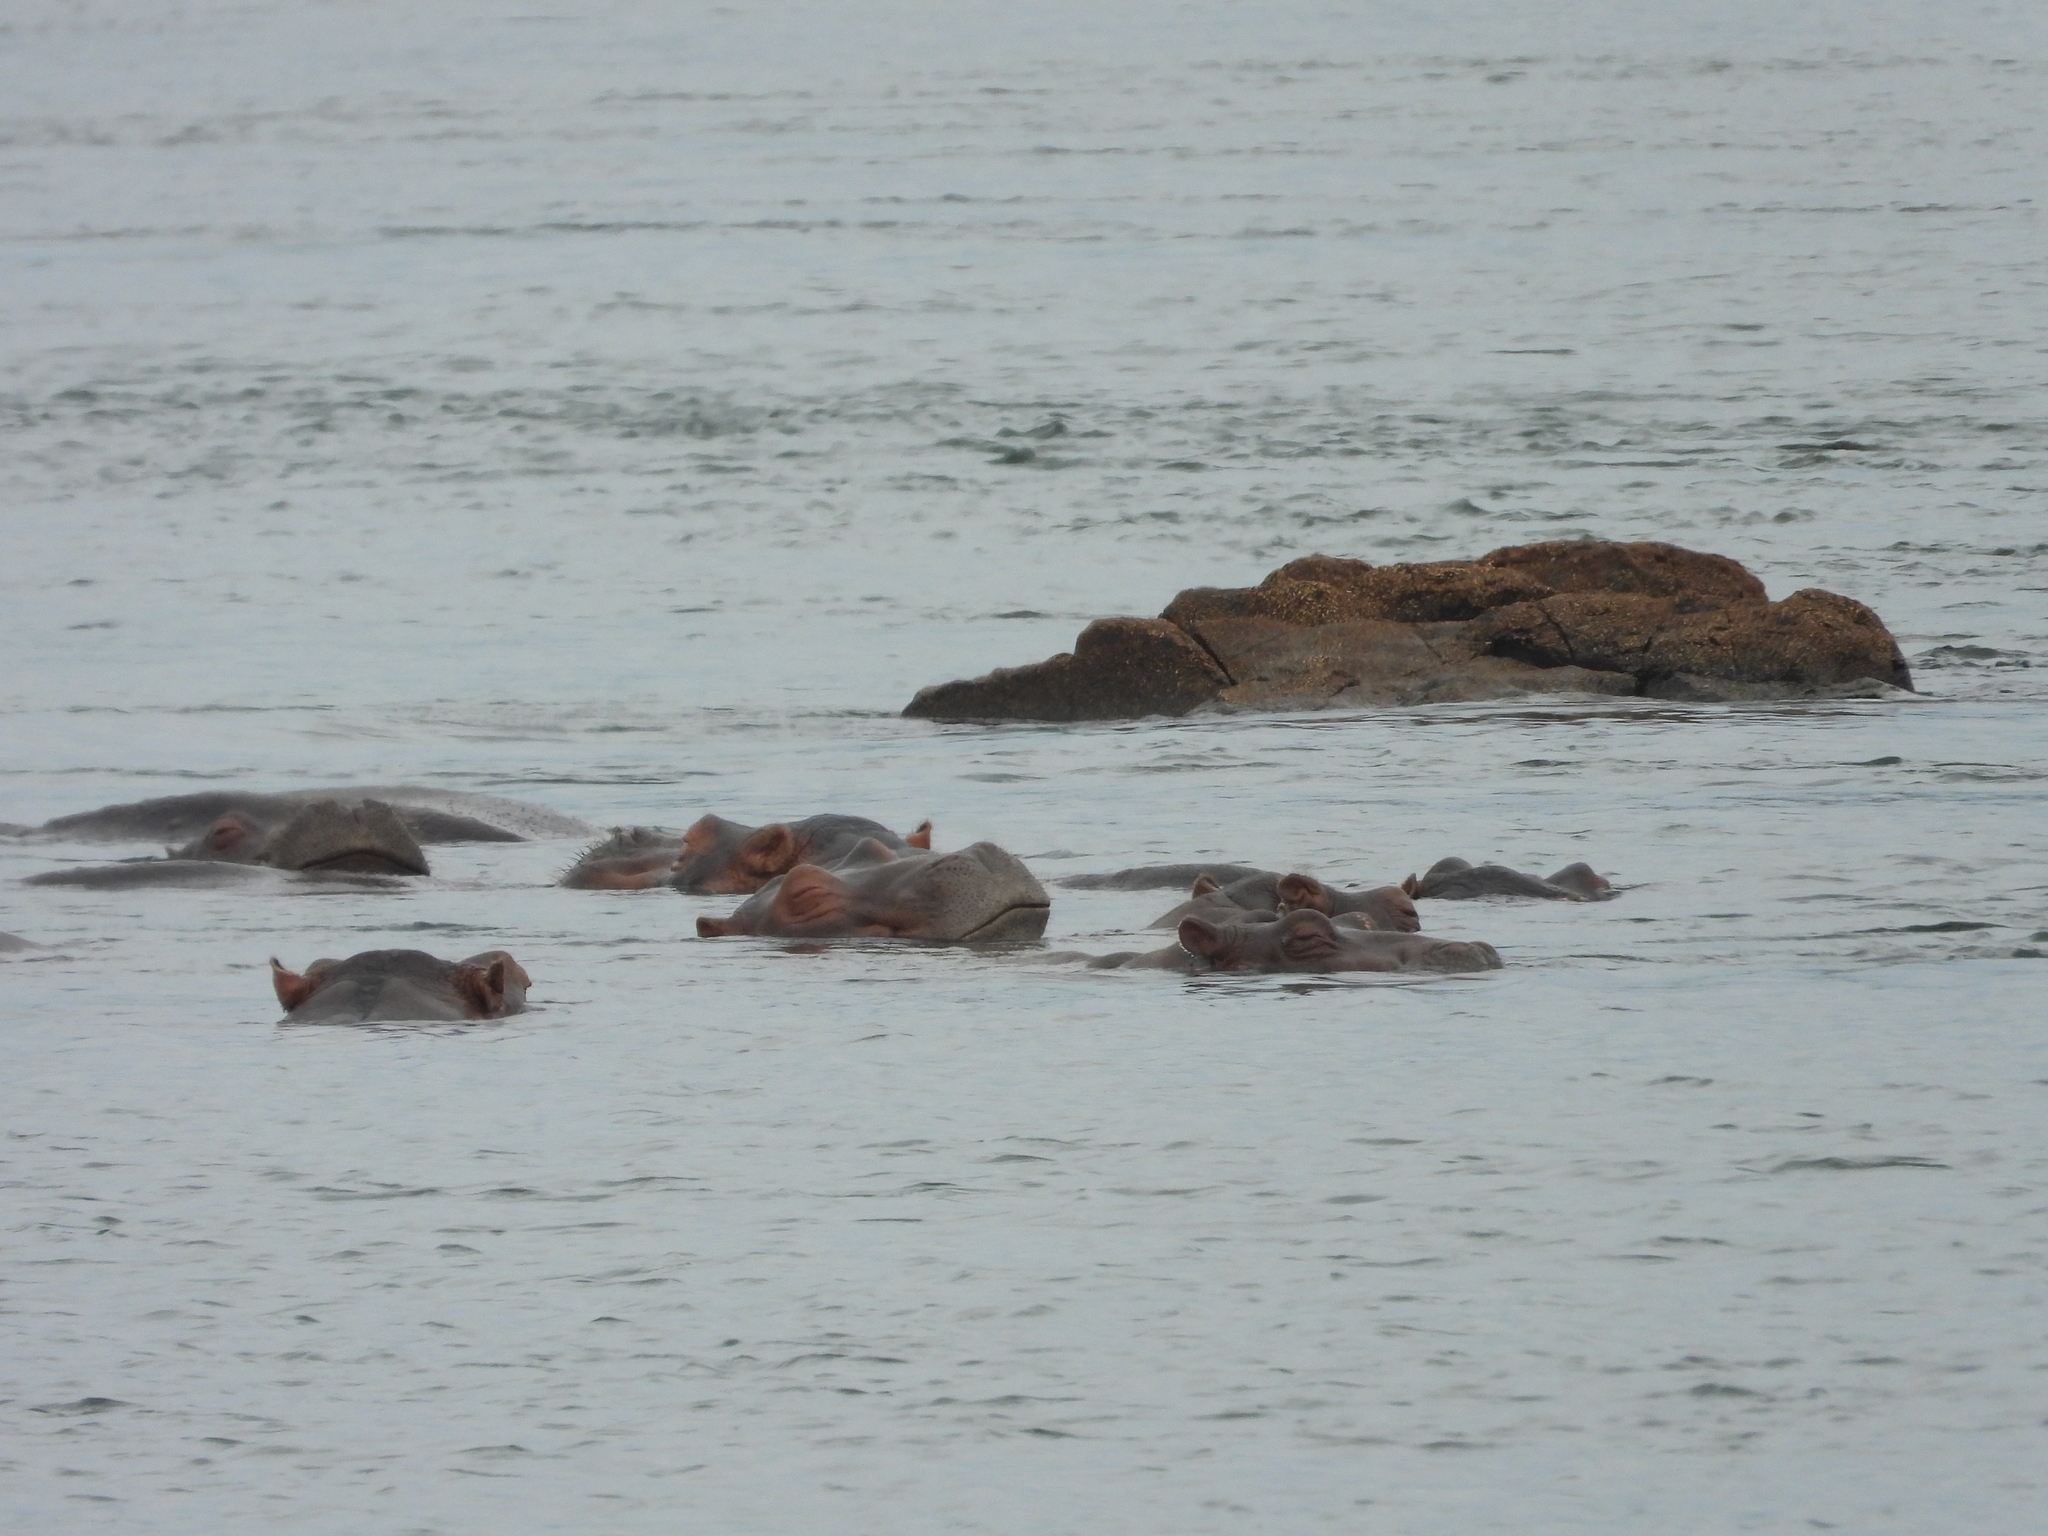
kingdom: Animalia
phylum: Chordata
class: Mammalia
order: Artiodactyla
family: Hippopotamidae
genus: Hippopotamus
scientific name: Hippopotamus amphibius
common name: Common hippopotamus
